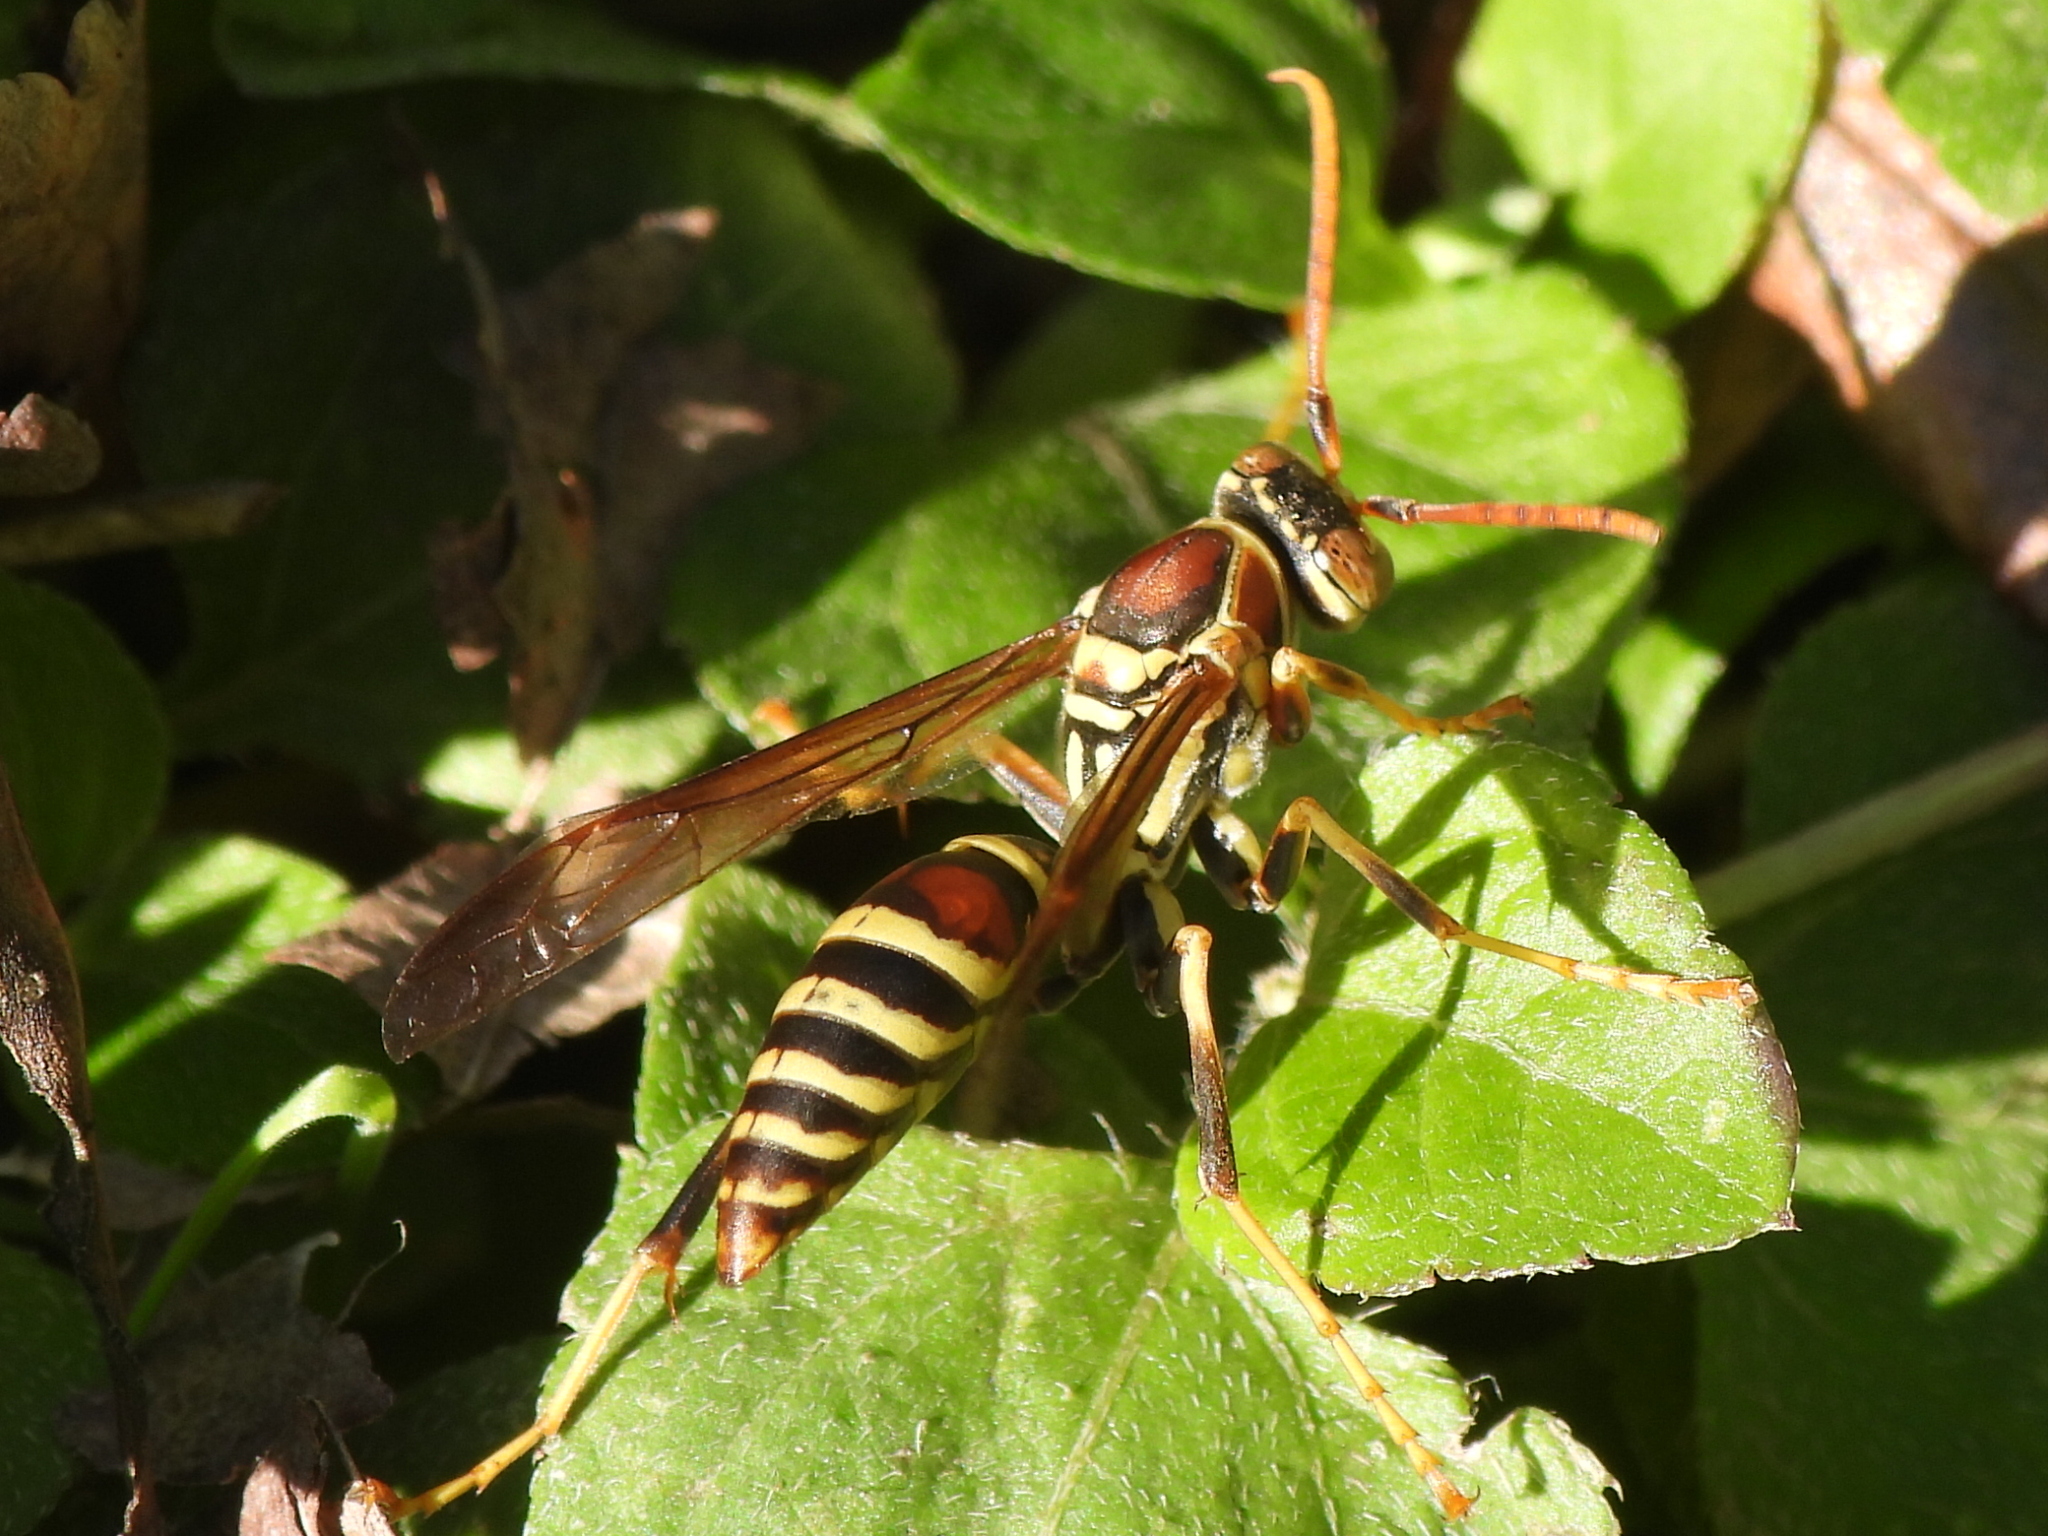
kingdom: Animalia
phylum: Arthropoda
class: Insecta
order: Hymenoptera
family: Eumenidae
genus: Polistes
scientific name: Polistes exclamans
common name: Paper wasp
